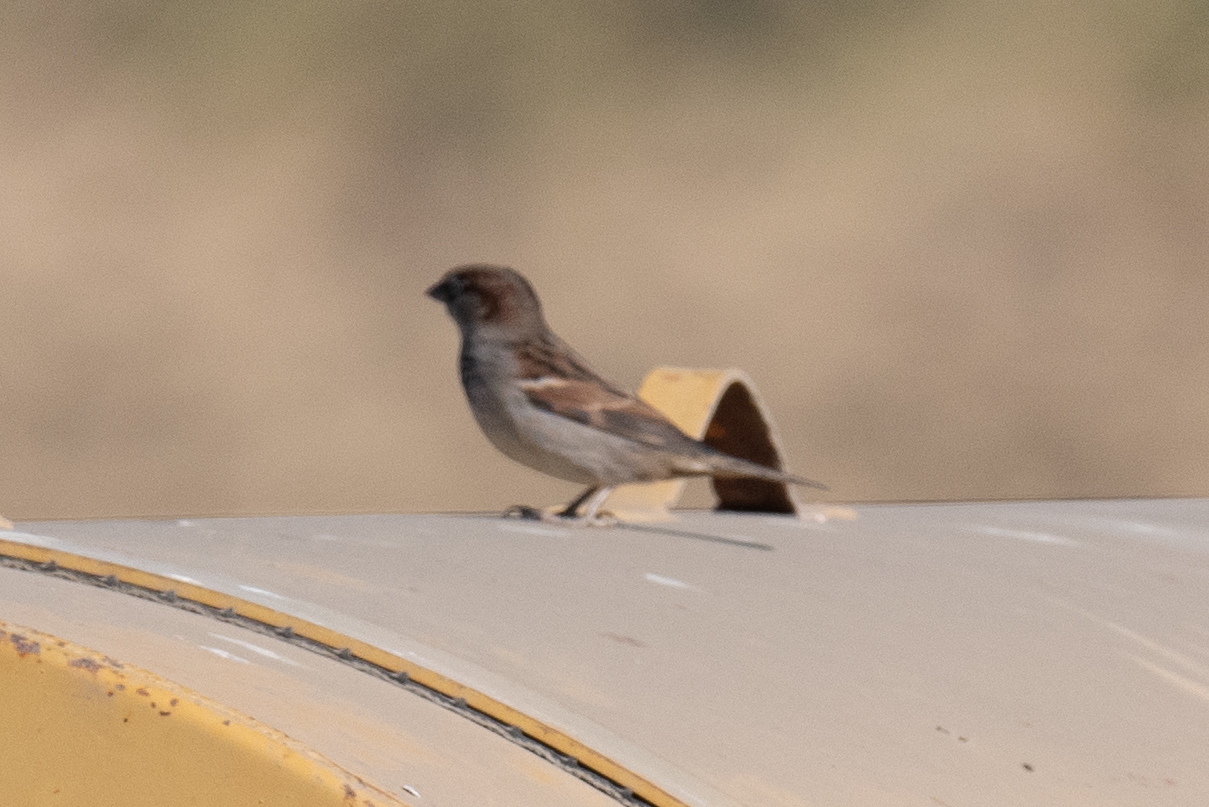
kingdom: Animalia
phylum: Chordata
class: Aves
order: Passeriformes
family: Passeridae
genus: Passer
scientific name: Passer domesticus
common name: House sparrow
